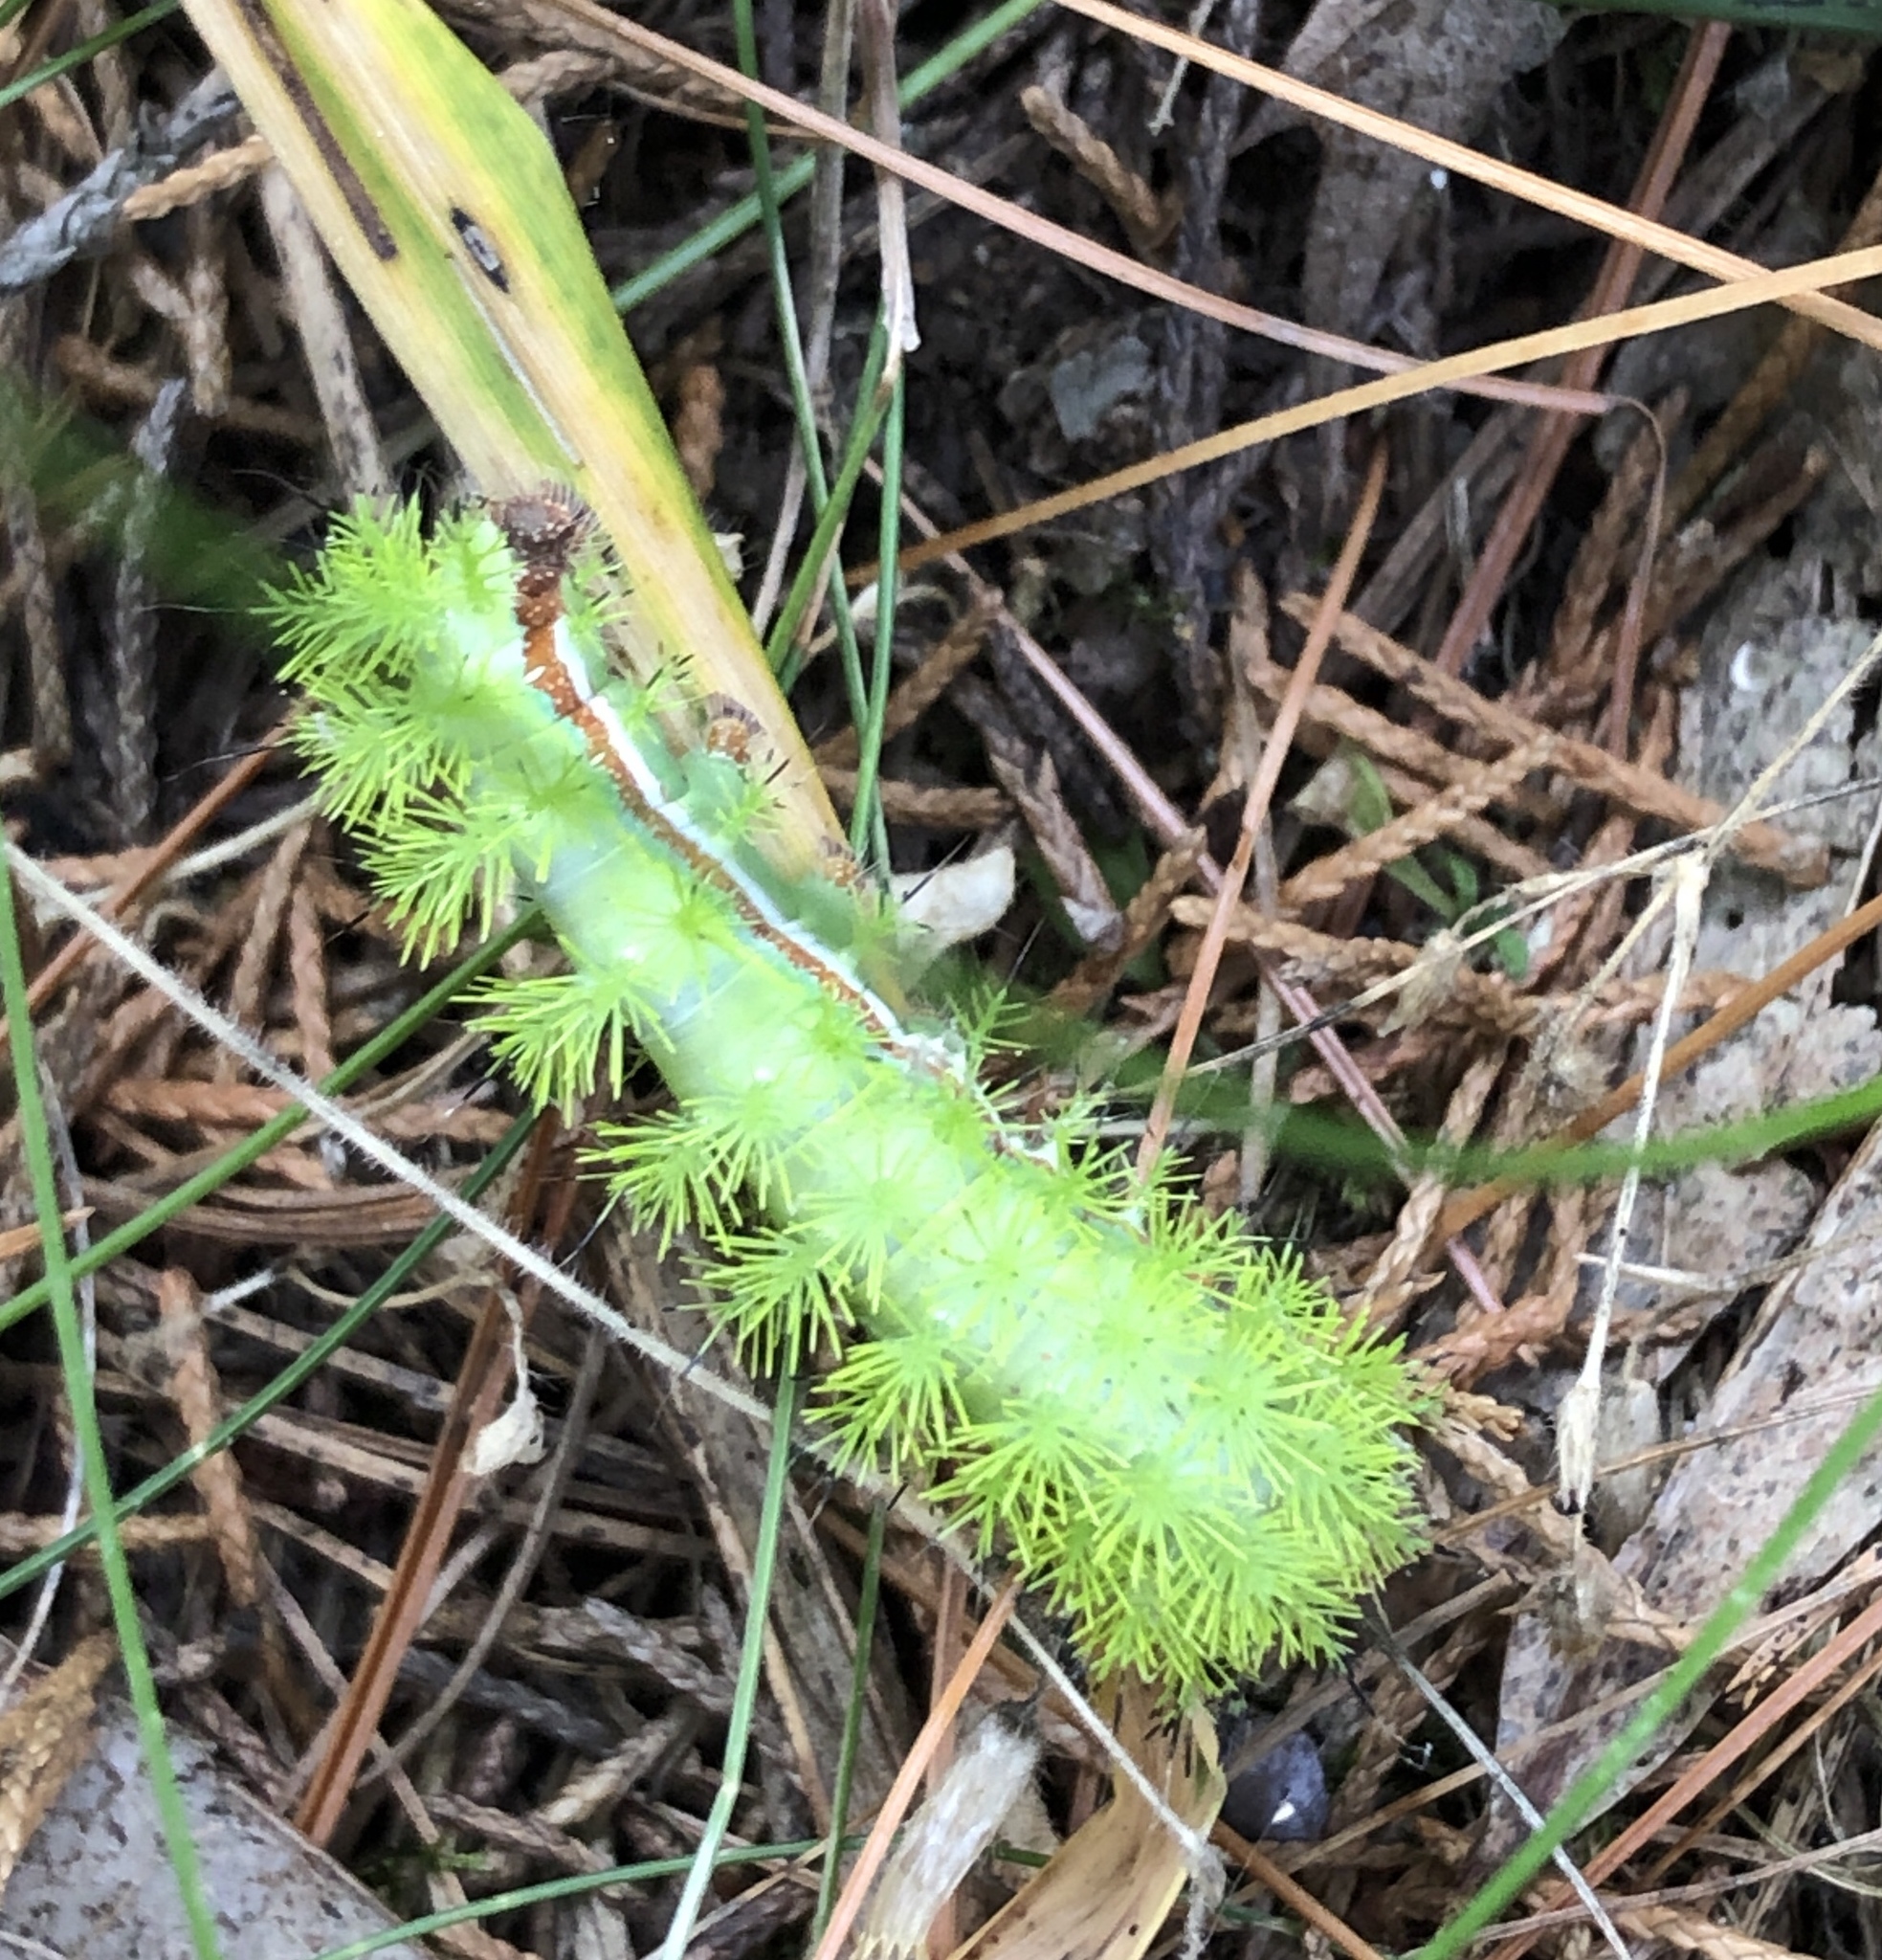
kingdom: Animalia
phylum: Arthropoda
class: Insecta
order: Lepidoptera
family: Saturniidae
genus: Automeris
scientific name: Automeris io
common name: Io moth
